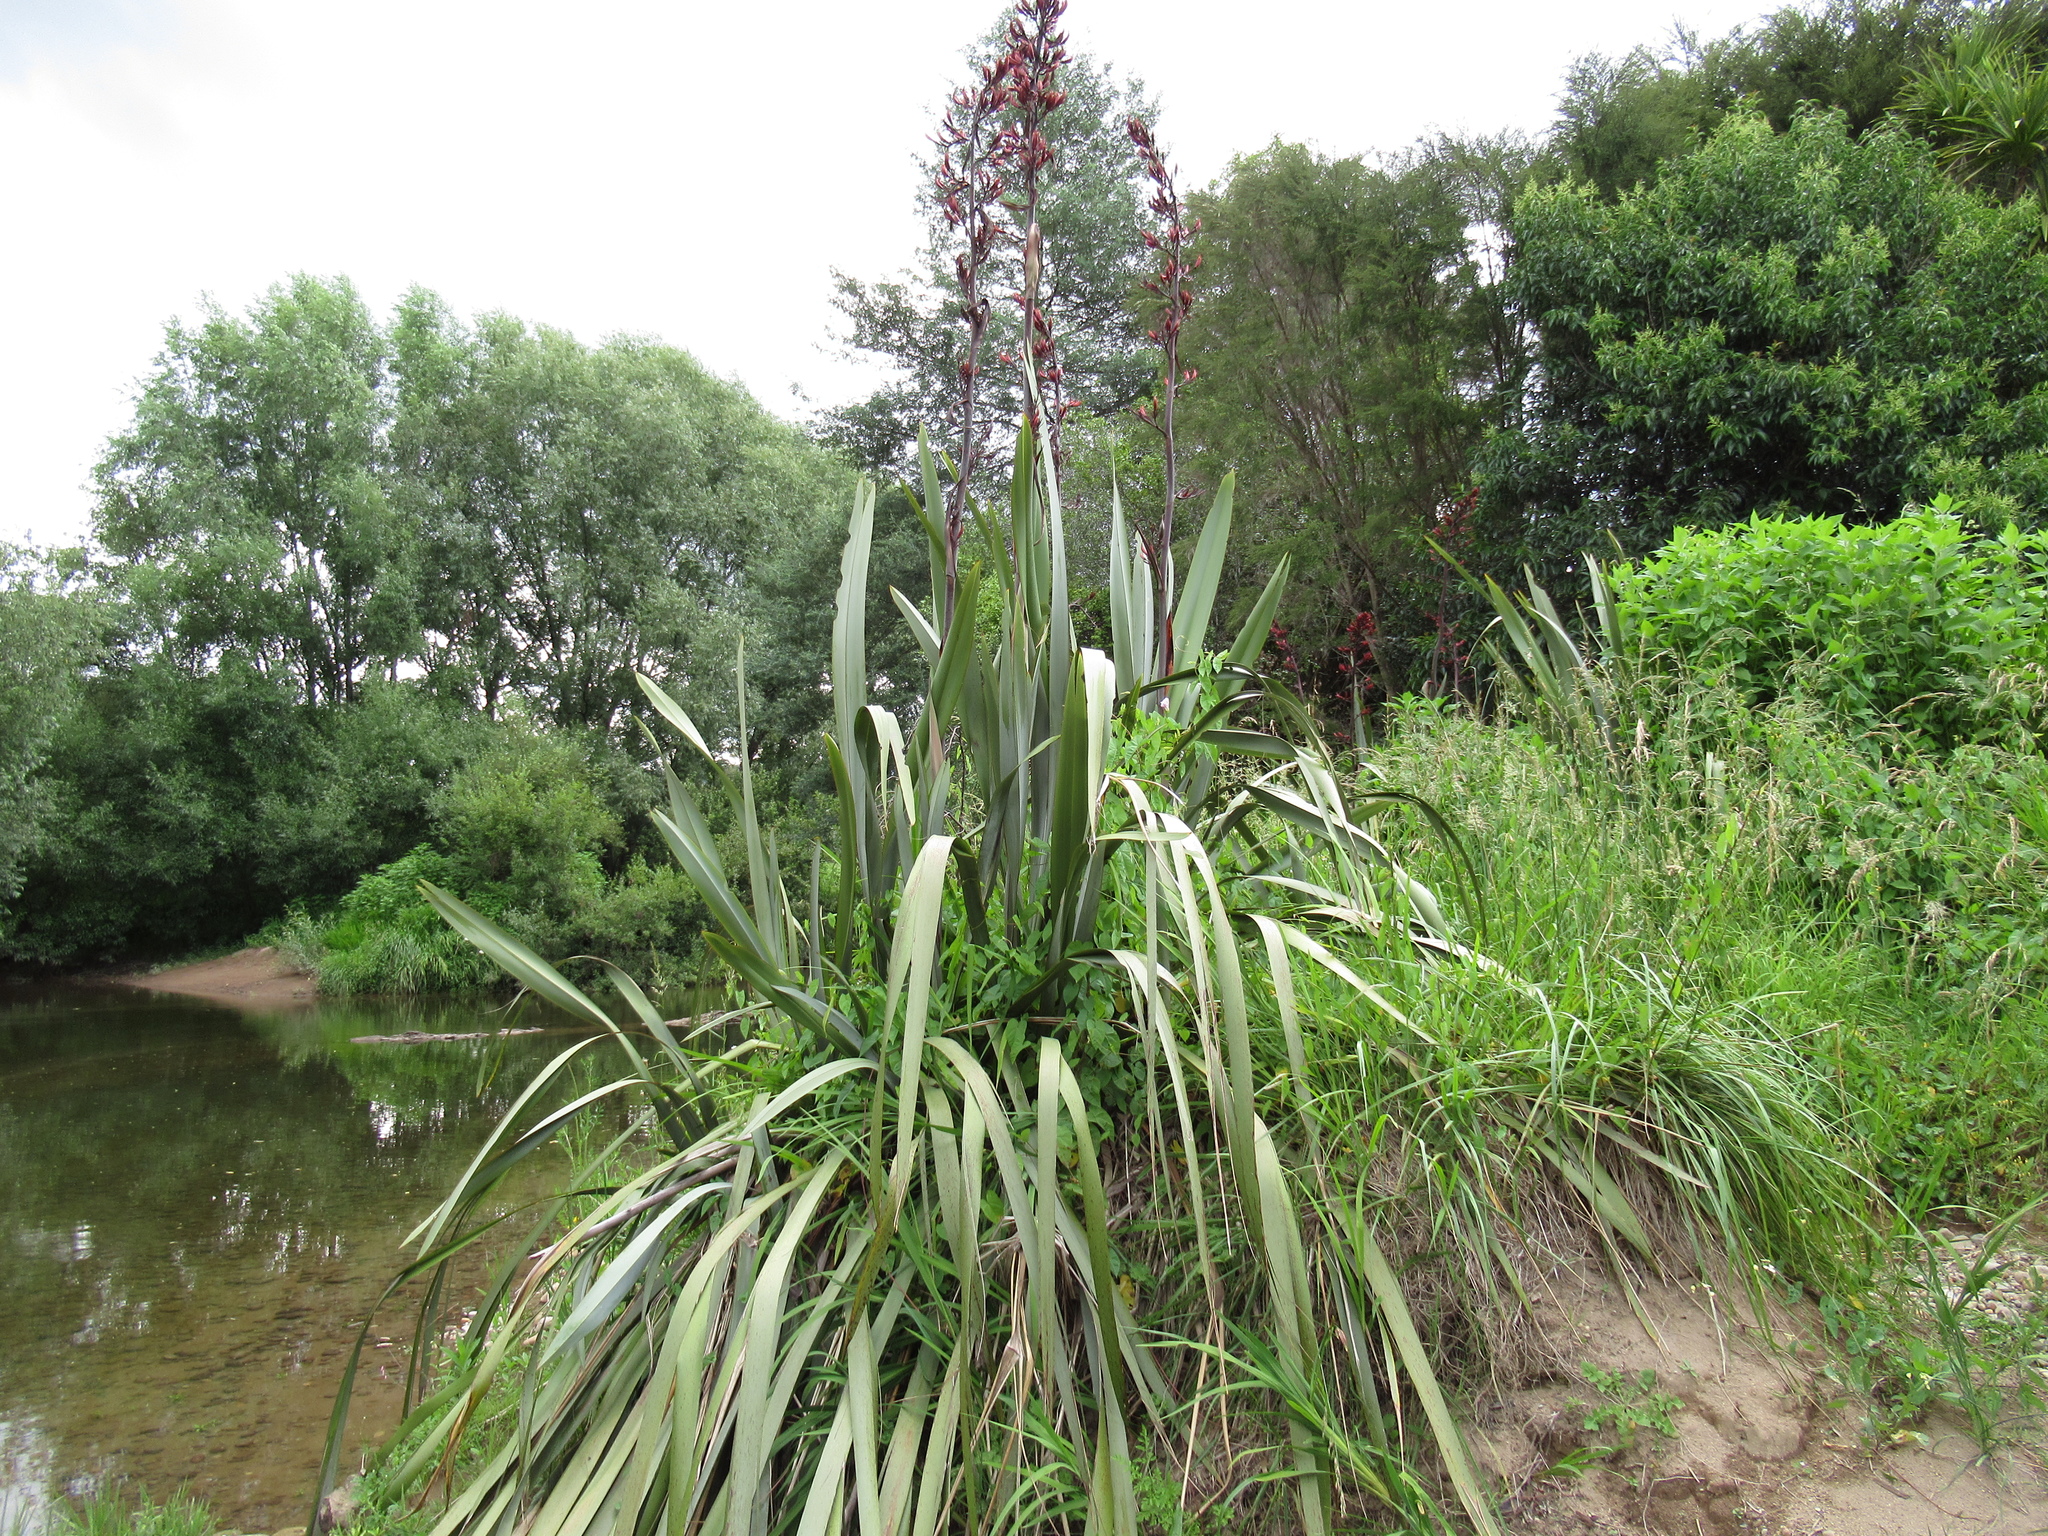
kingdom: Plantae
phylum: Tracheophyta
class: Liliopsida
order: Asparagales
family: Asphodelaceae
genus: Phormium
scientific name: Phormium tenax
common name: New zealand flax
